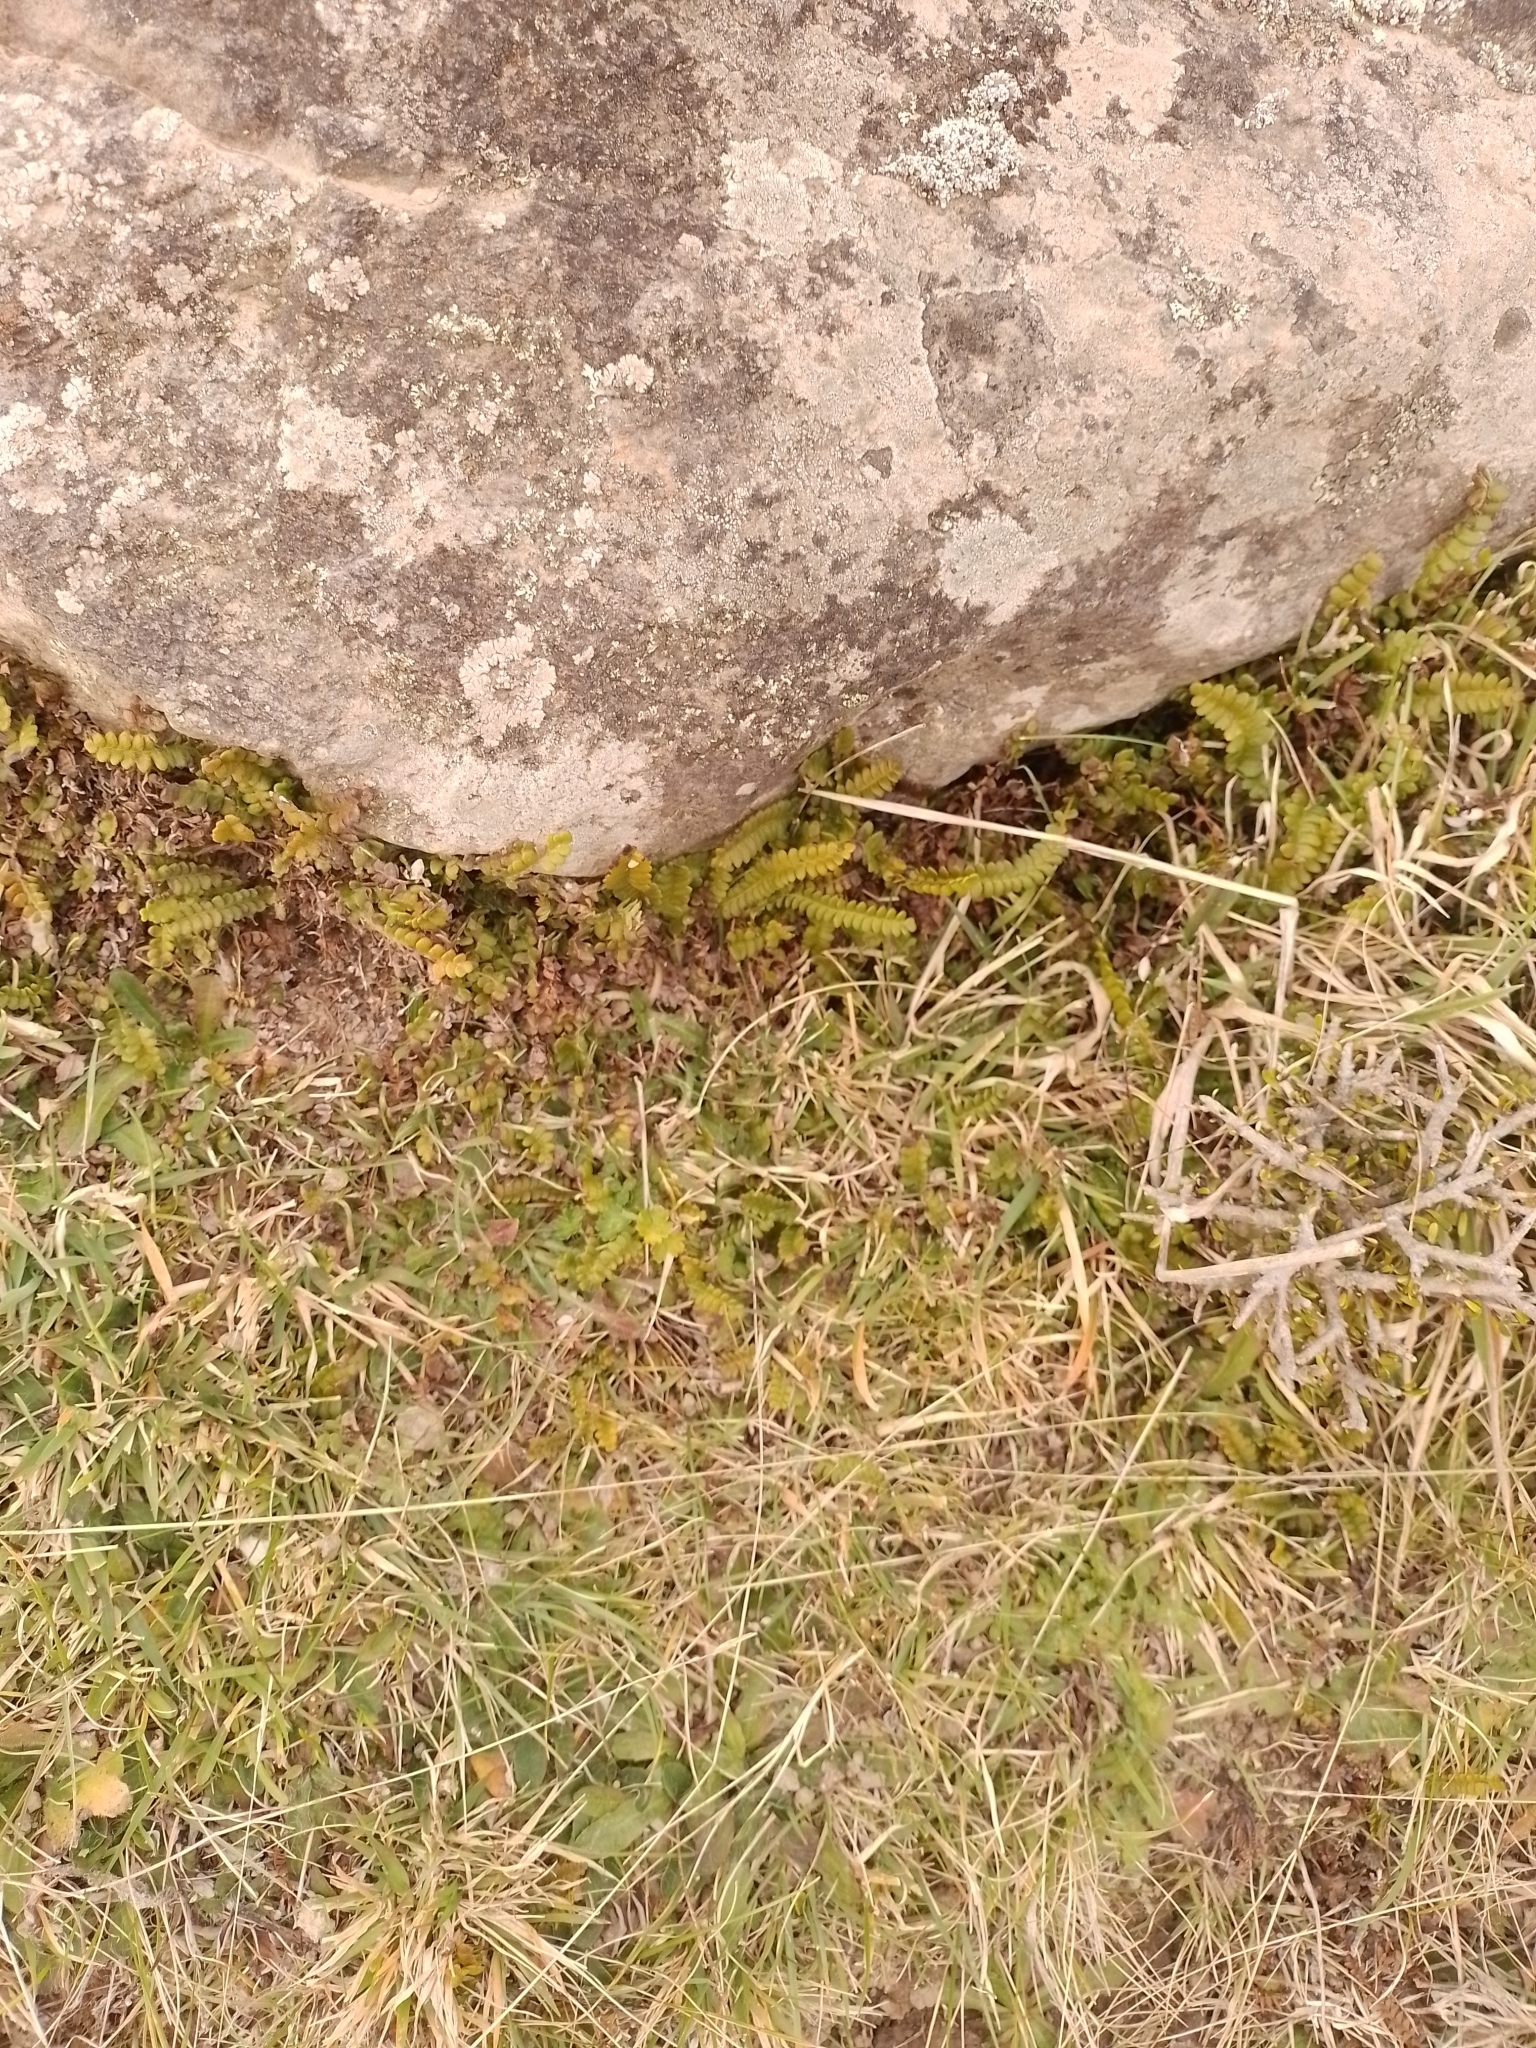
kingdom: Plantae
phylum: Tracheophyta
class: Polypodiopsida
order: Polypodiales
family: Blechnaceae
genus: Austroblechnum
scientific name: Austroblechnum penna-marina
